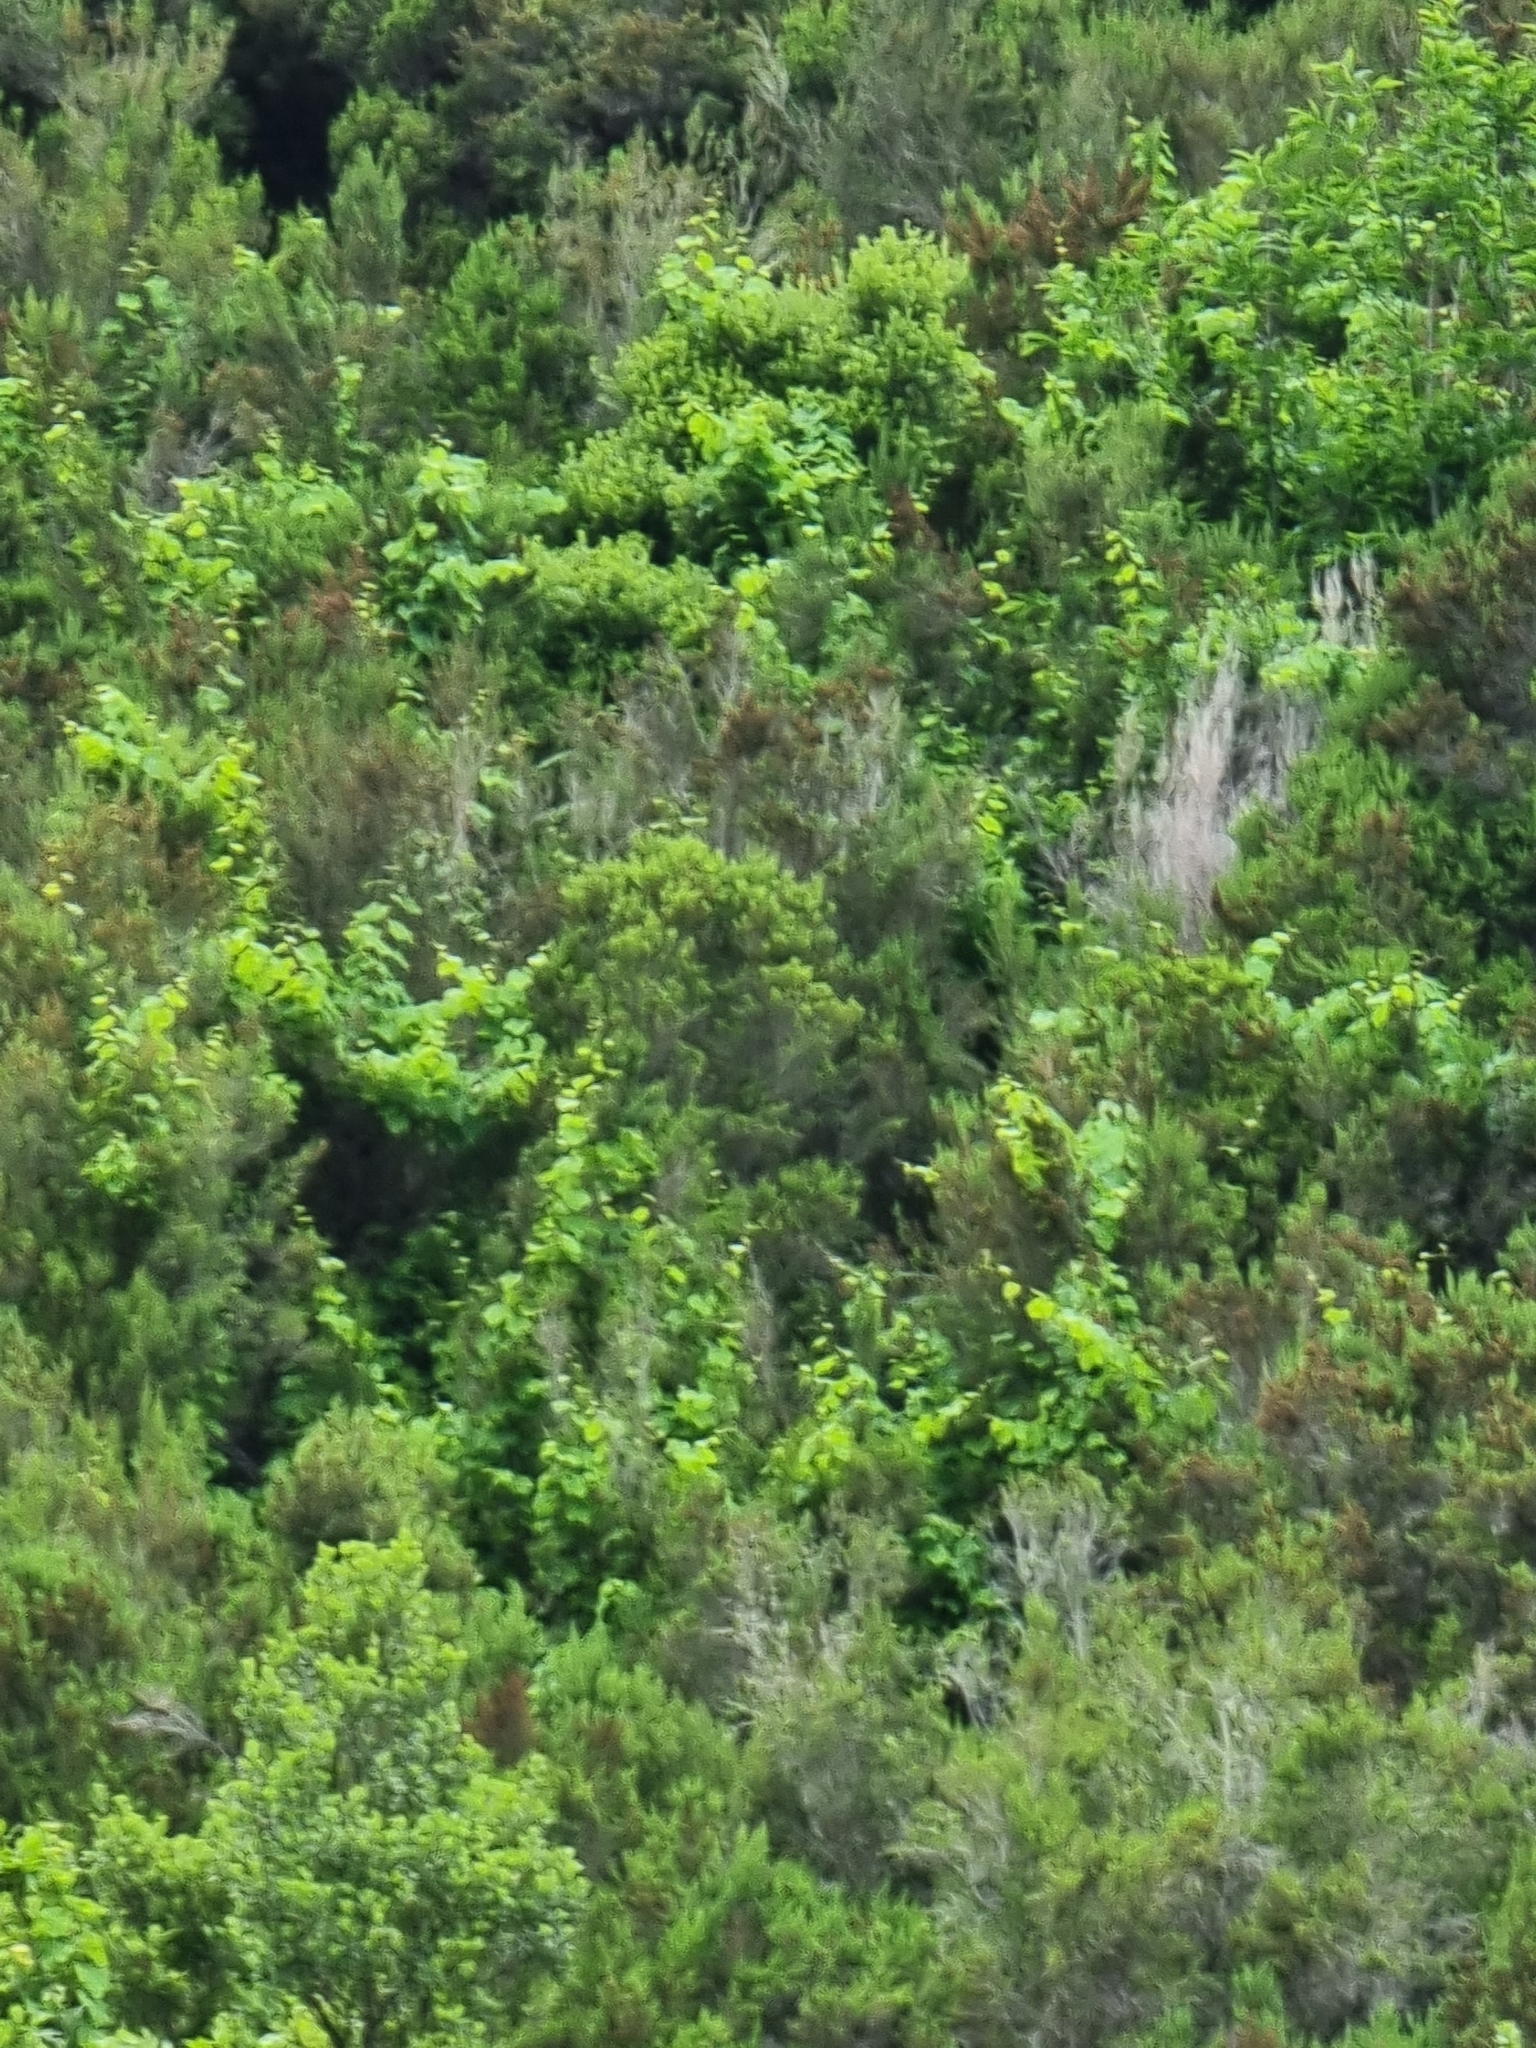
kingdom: Plantae
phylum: Tracheophyta
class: Magnoliopsida
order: Vitales
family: Vitaceae
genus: Vitis
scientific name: Vitis vinifera
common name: Grape-vine
